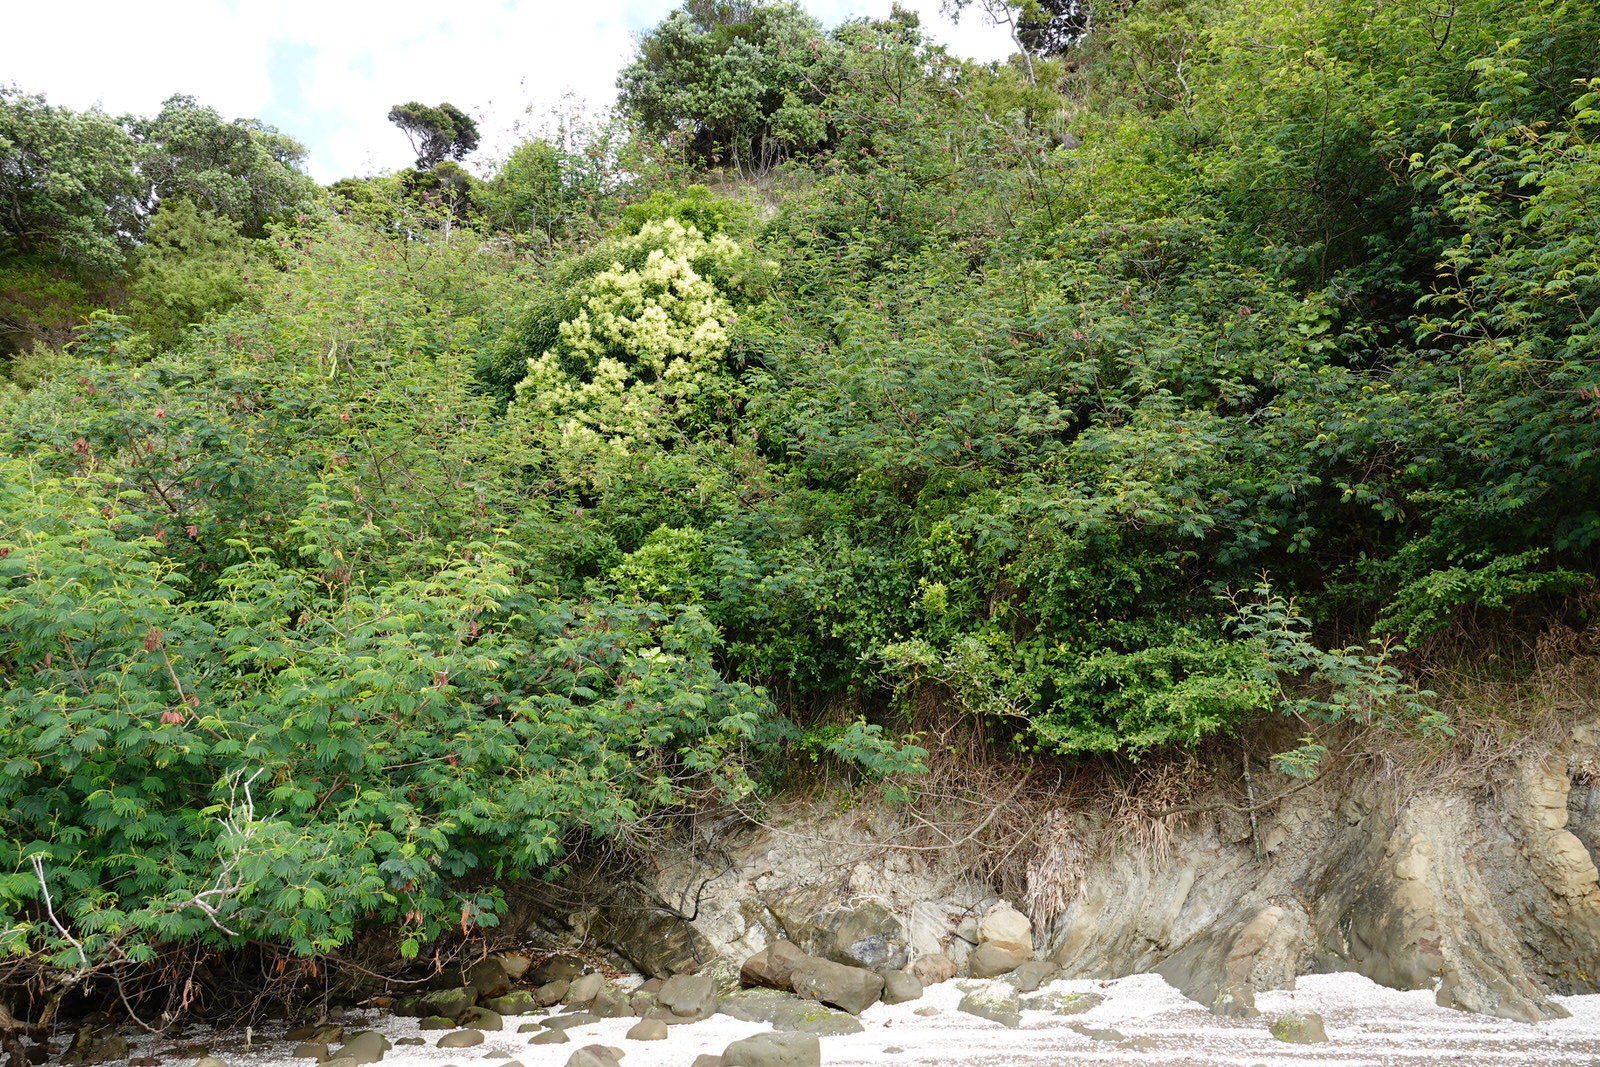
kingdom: Plantae
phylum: Tracheophyta
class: Magnoliopsida
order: Fabales
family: Fabaceae
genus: Paraserianthes
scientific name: Paraserianthes lophantha
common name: Plume albizia
